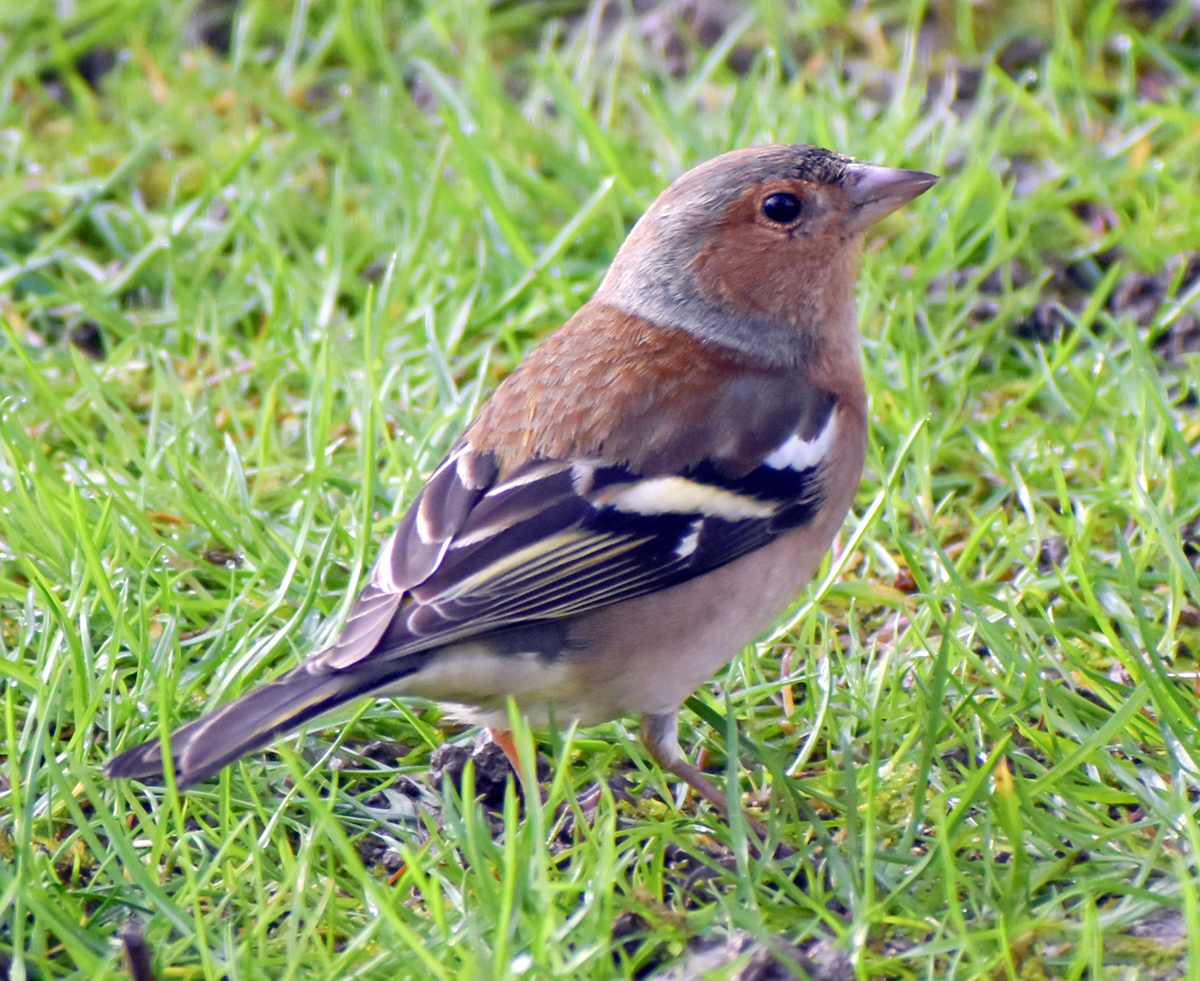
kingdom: Animalia
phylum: Chordata
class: Aves
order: Passeriformes
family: Fringillidae
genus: Fringilla
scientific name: Fringilla coelebs
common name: Common chaffinch
